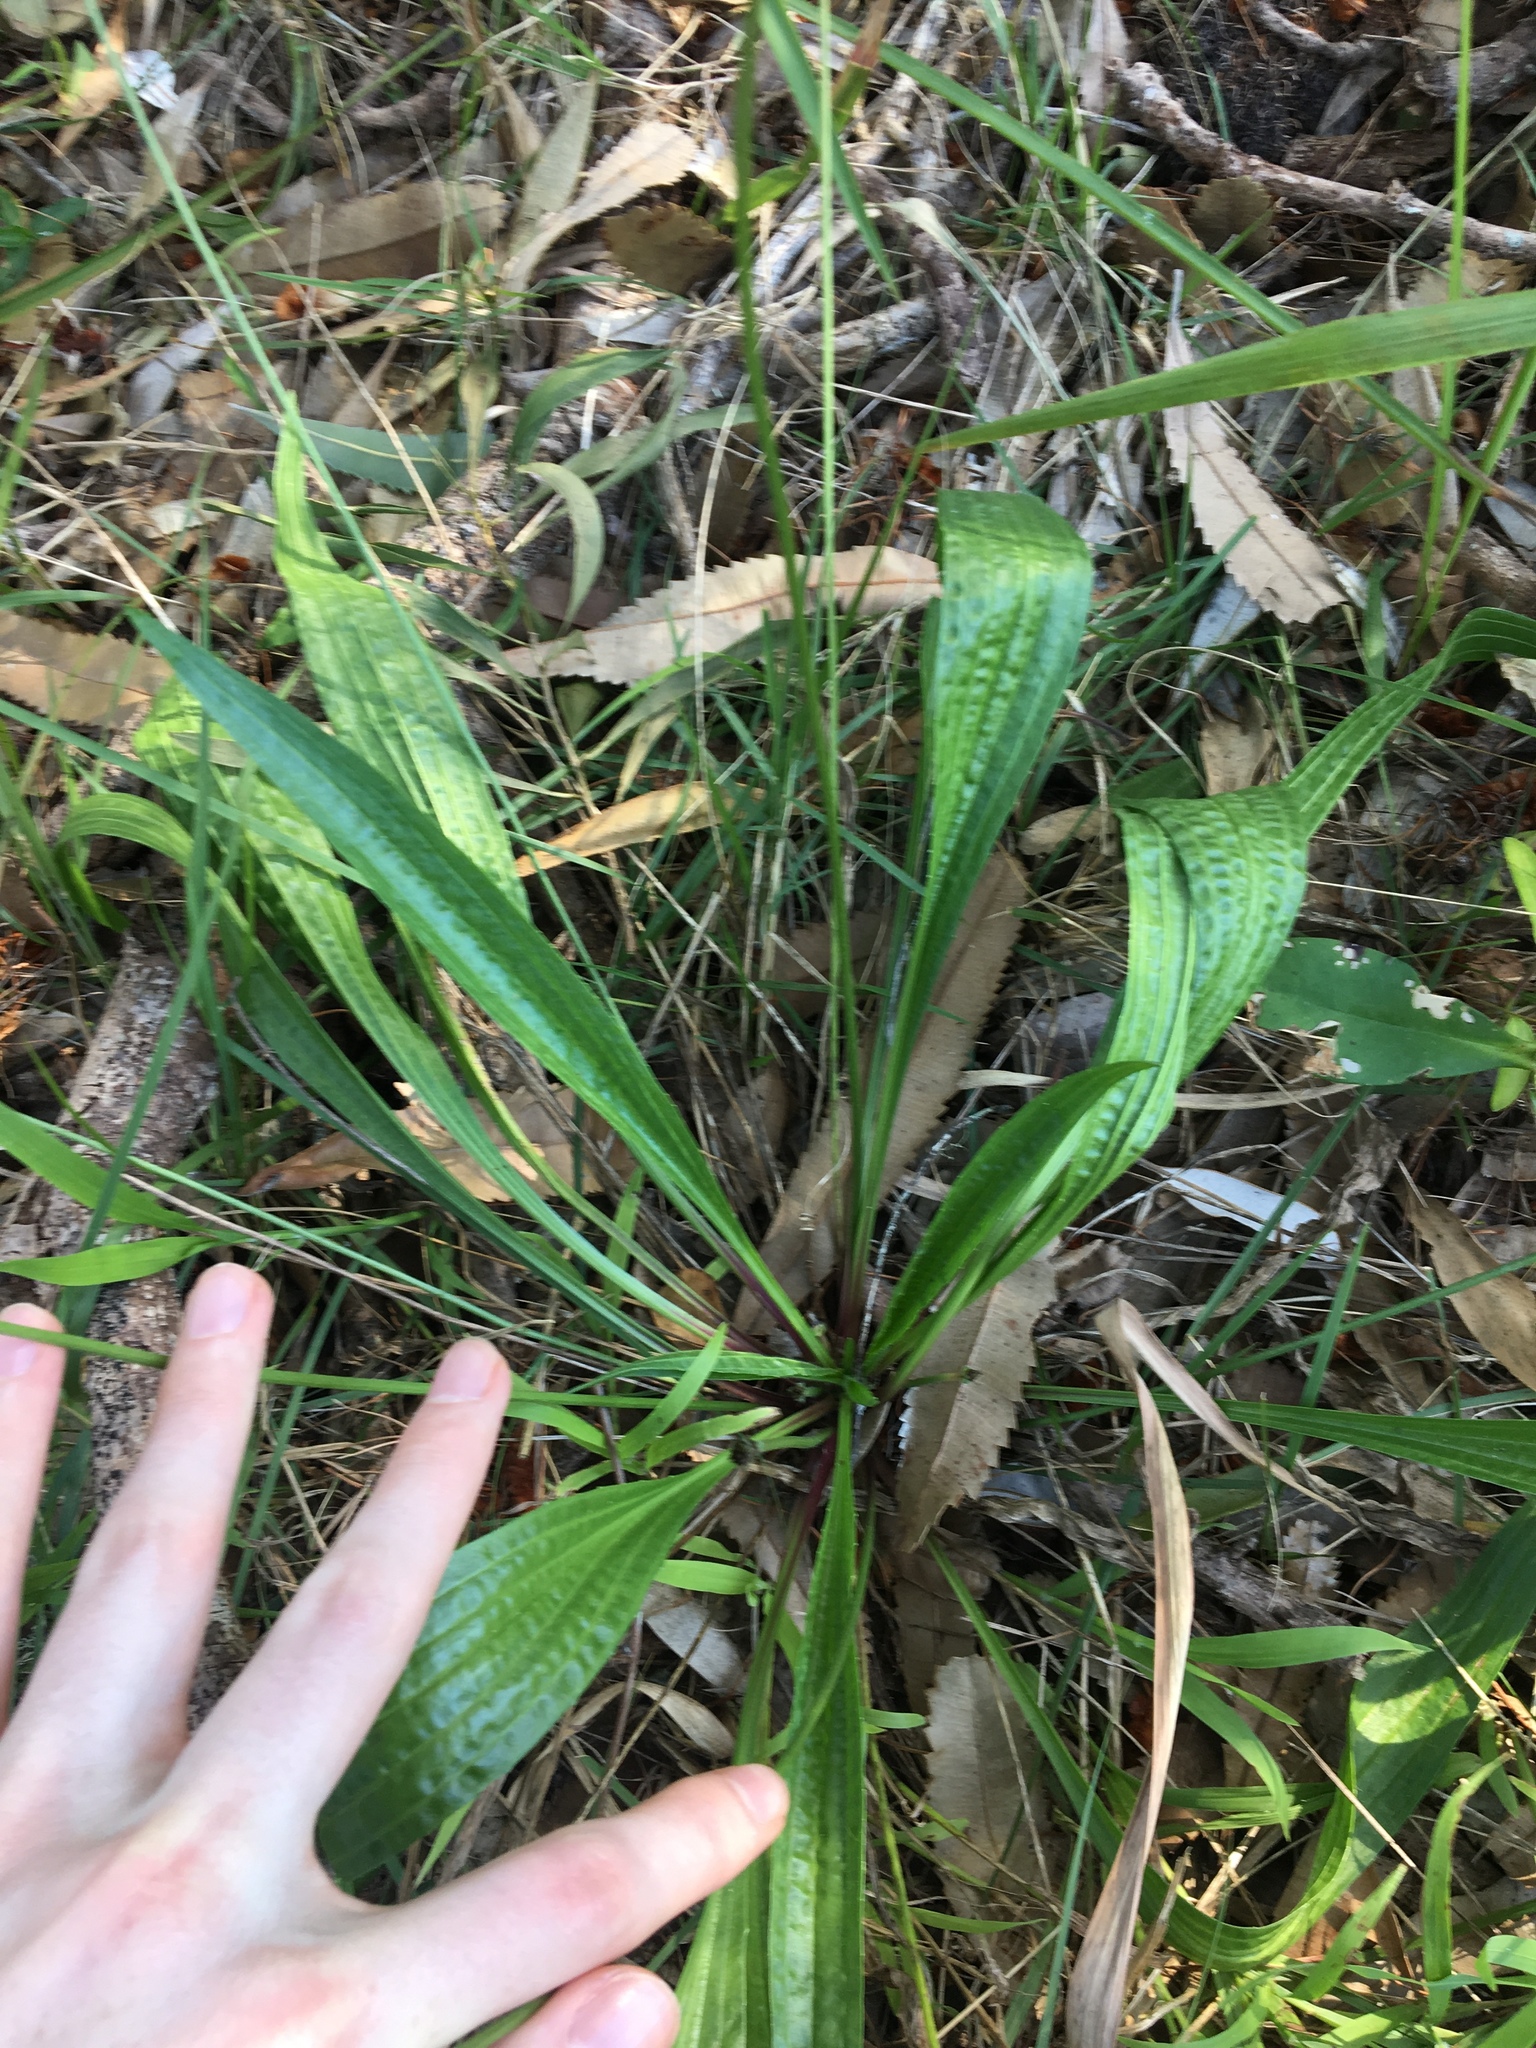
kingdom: Plantae
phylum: Tracheophyta
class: Magnoliopsida
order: Lamiales
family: Plantaginaceae
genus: Plantago
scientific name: Plantago lanceolata
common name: Ribwort plantain
